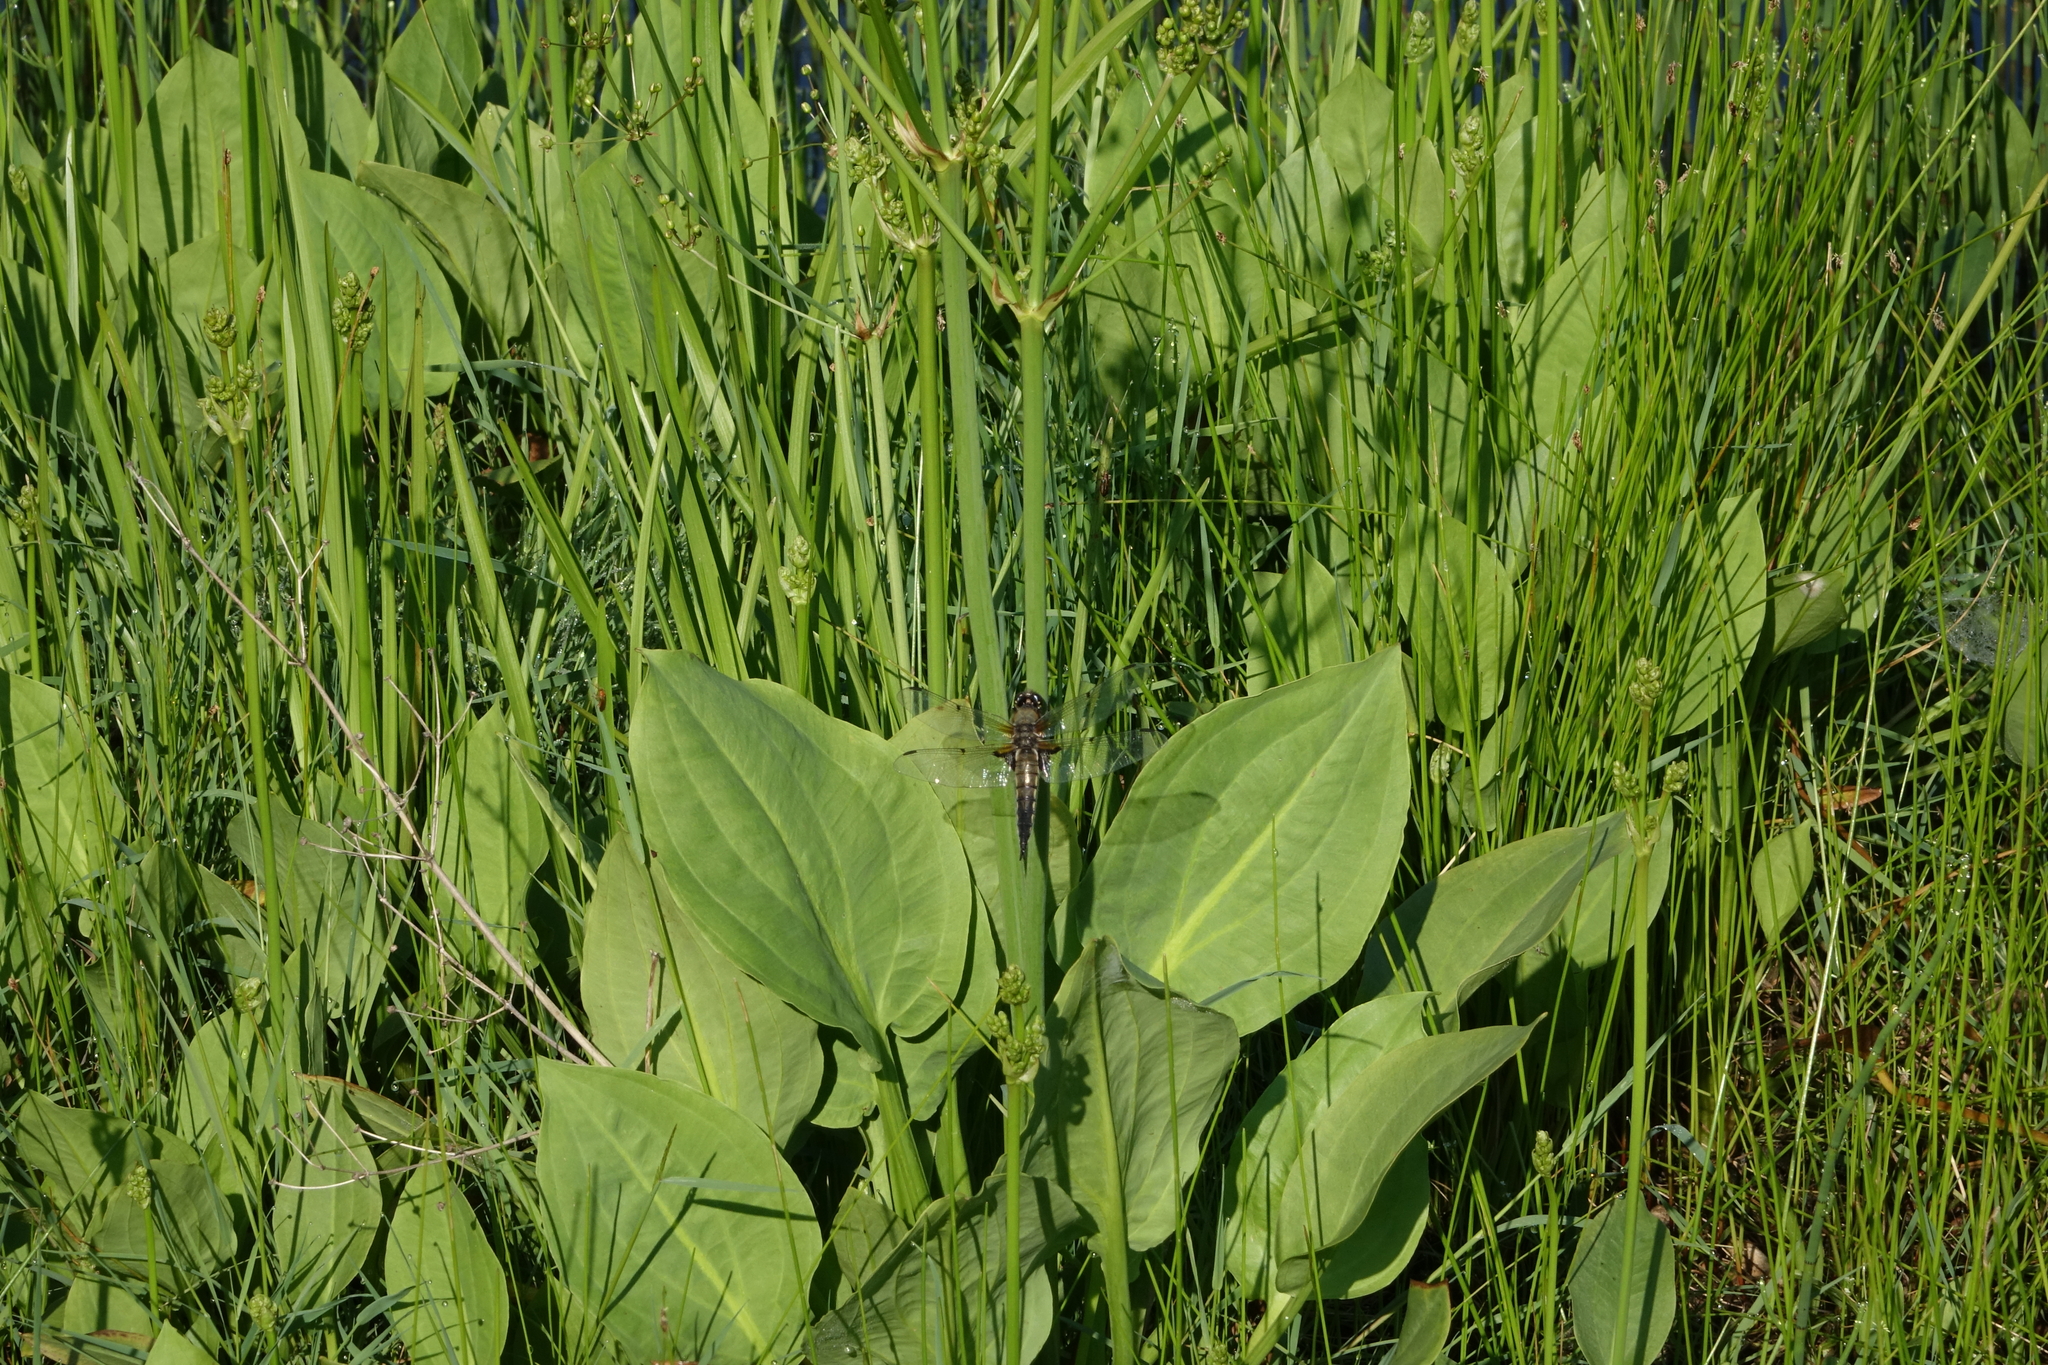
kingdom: Animalia
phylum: Arthropoda
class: Insecta
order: Odonata
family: Libellulidae
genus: Libellula
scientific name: Libellula quadrimaculata
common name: Four-spotted chaser
